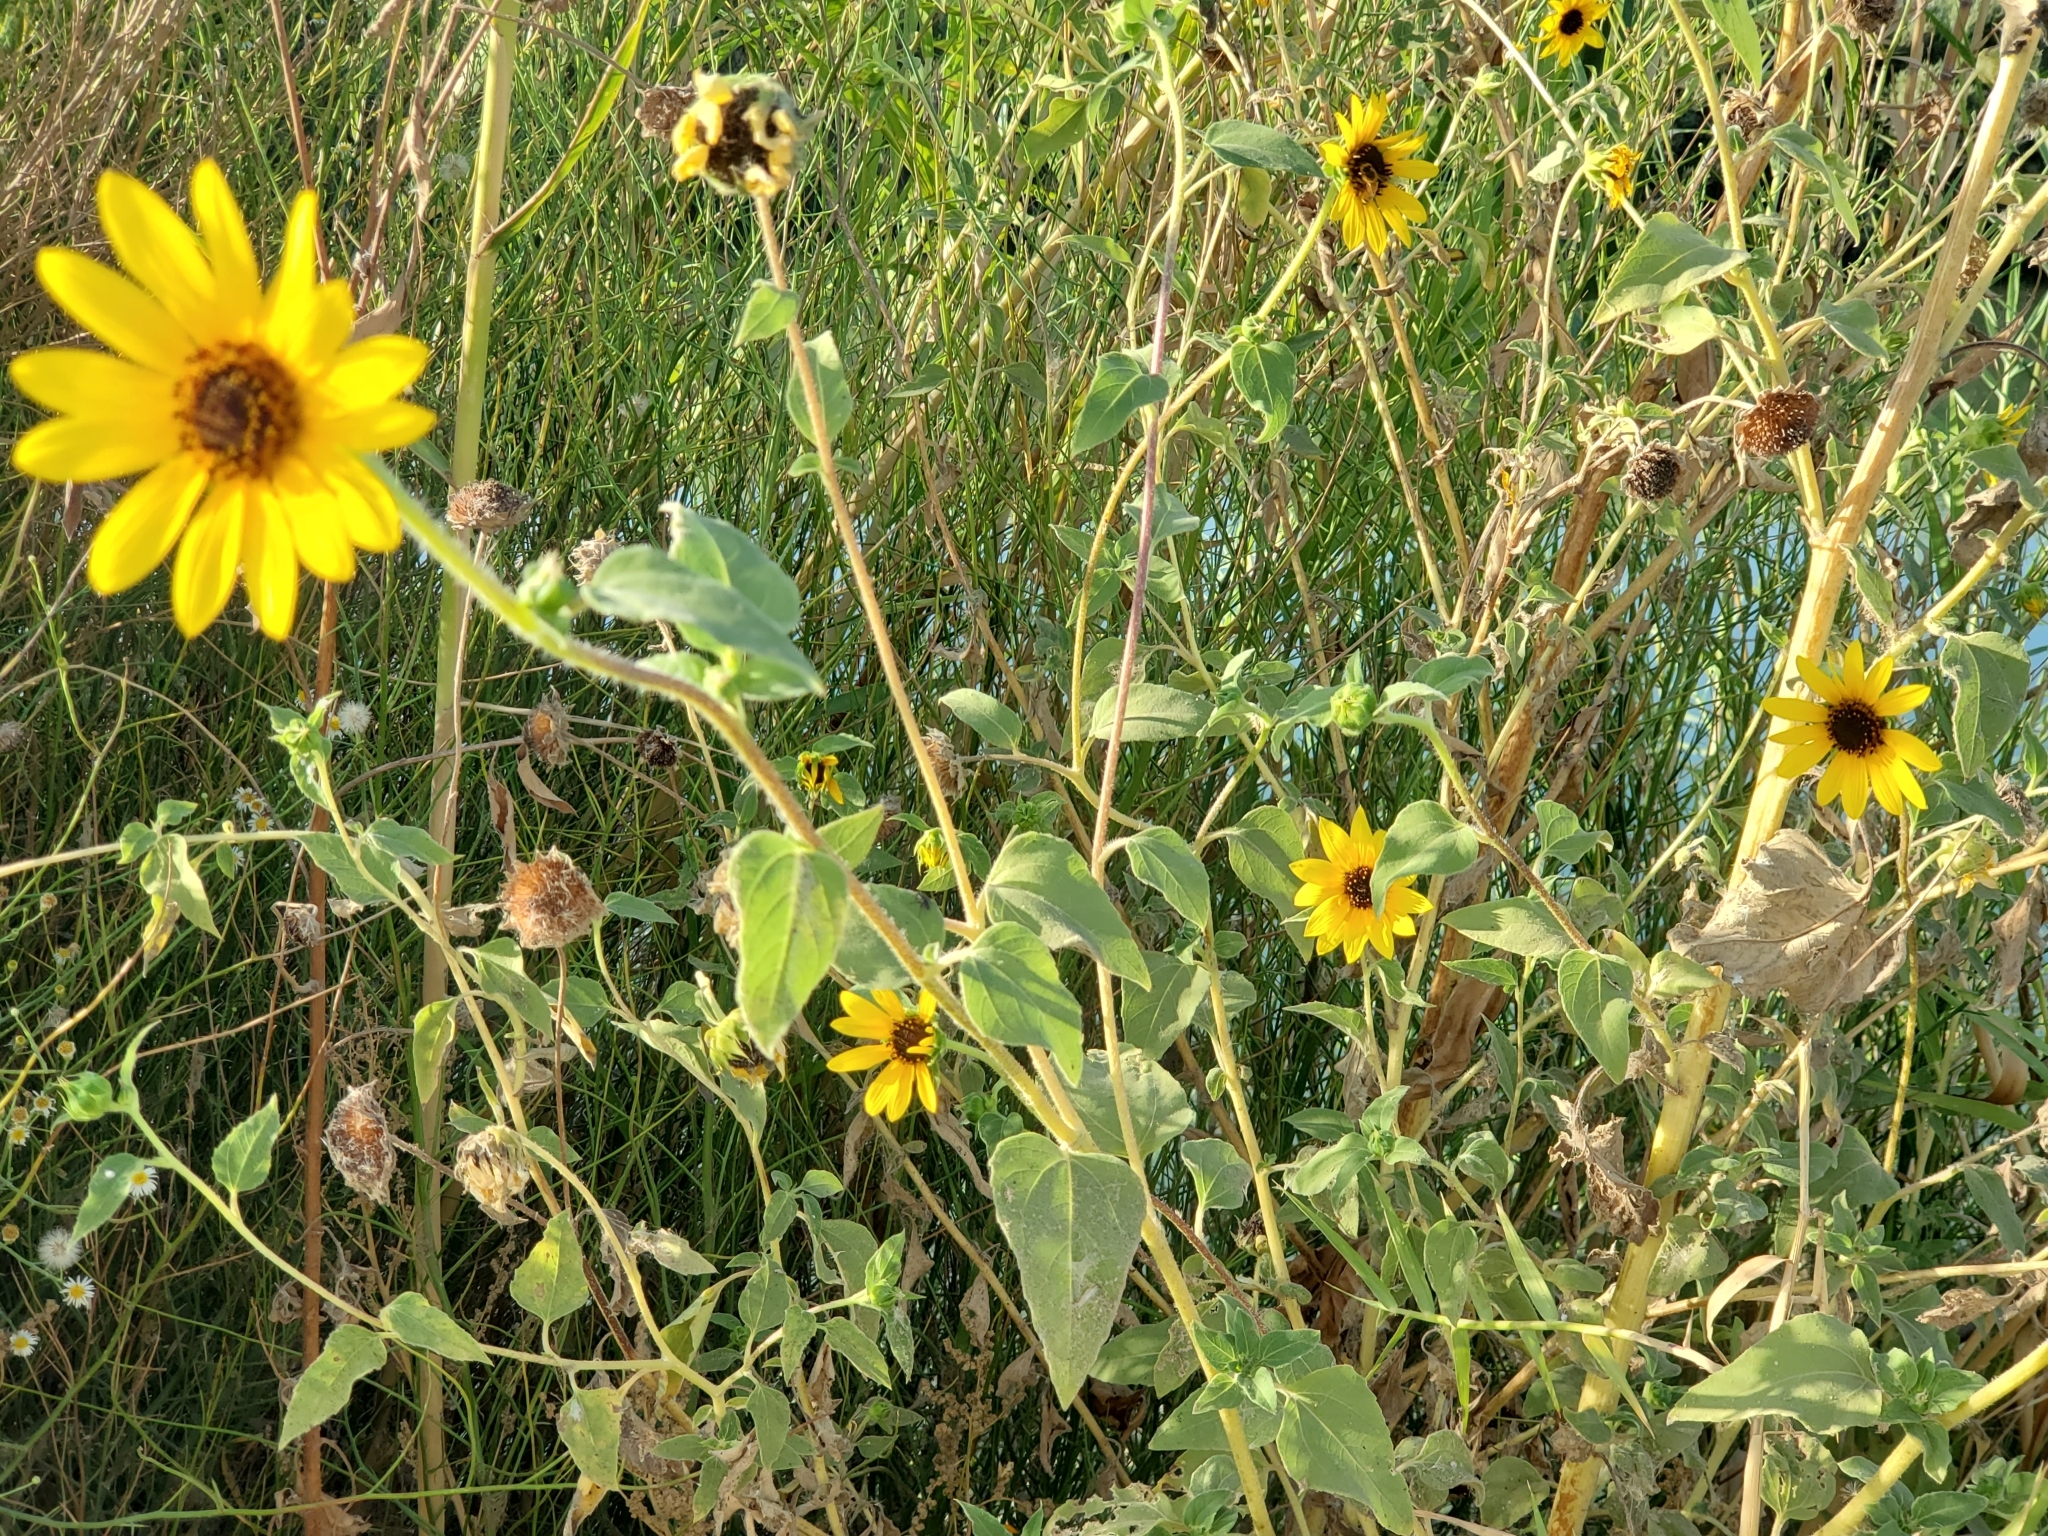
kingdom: Plantae
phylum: Tracheophyta
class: Magnoliopsida
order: Asterales
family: Asteraceae
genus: Helianthus
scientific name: Helianthus annuus
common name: Sunflower
